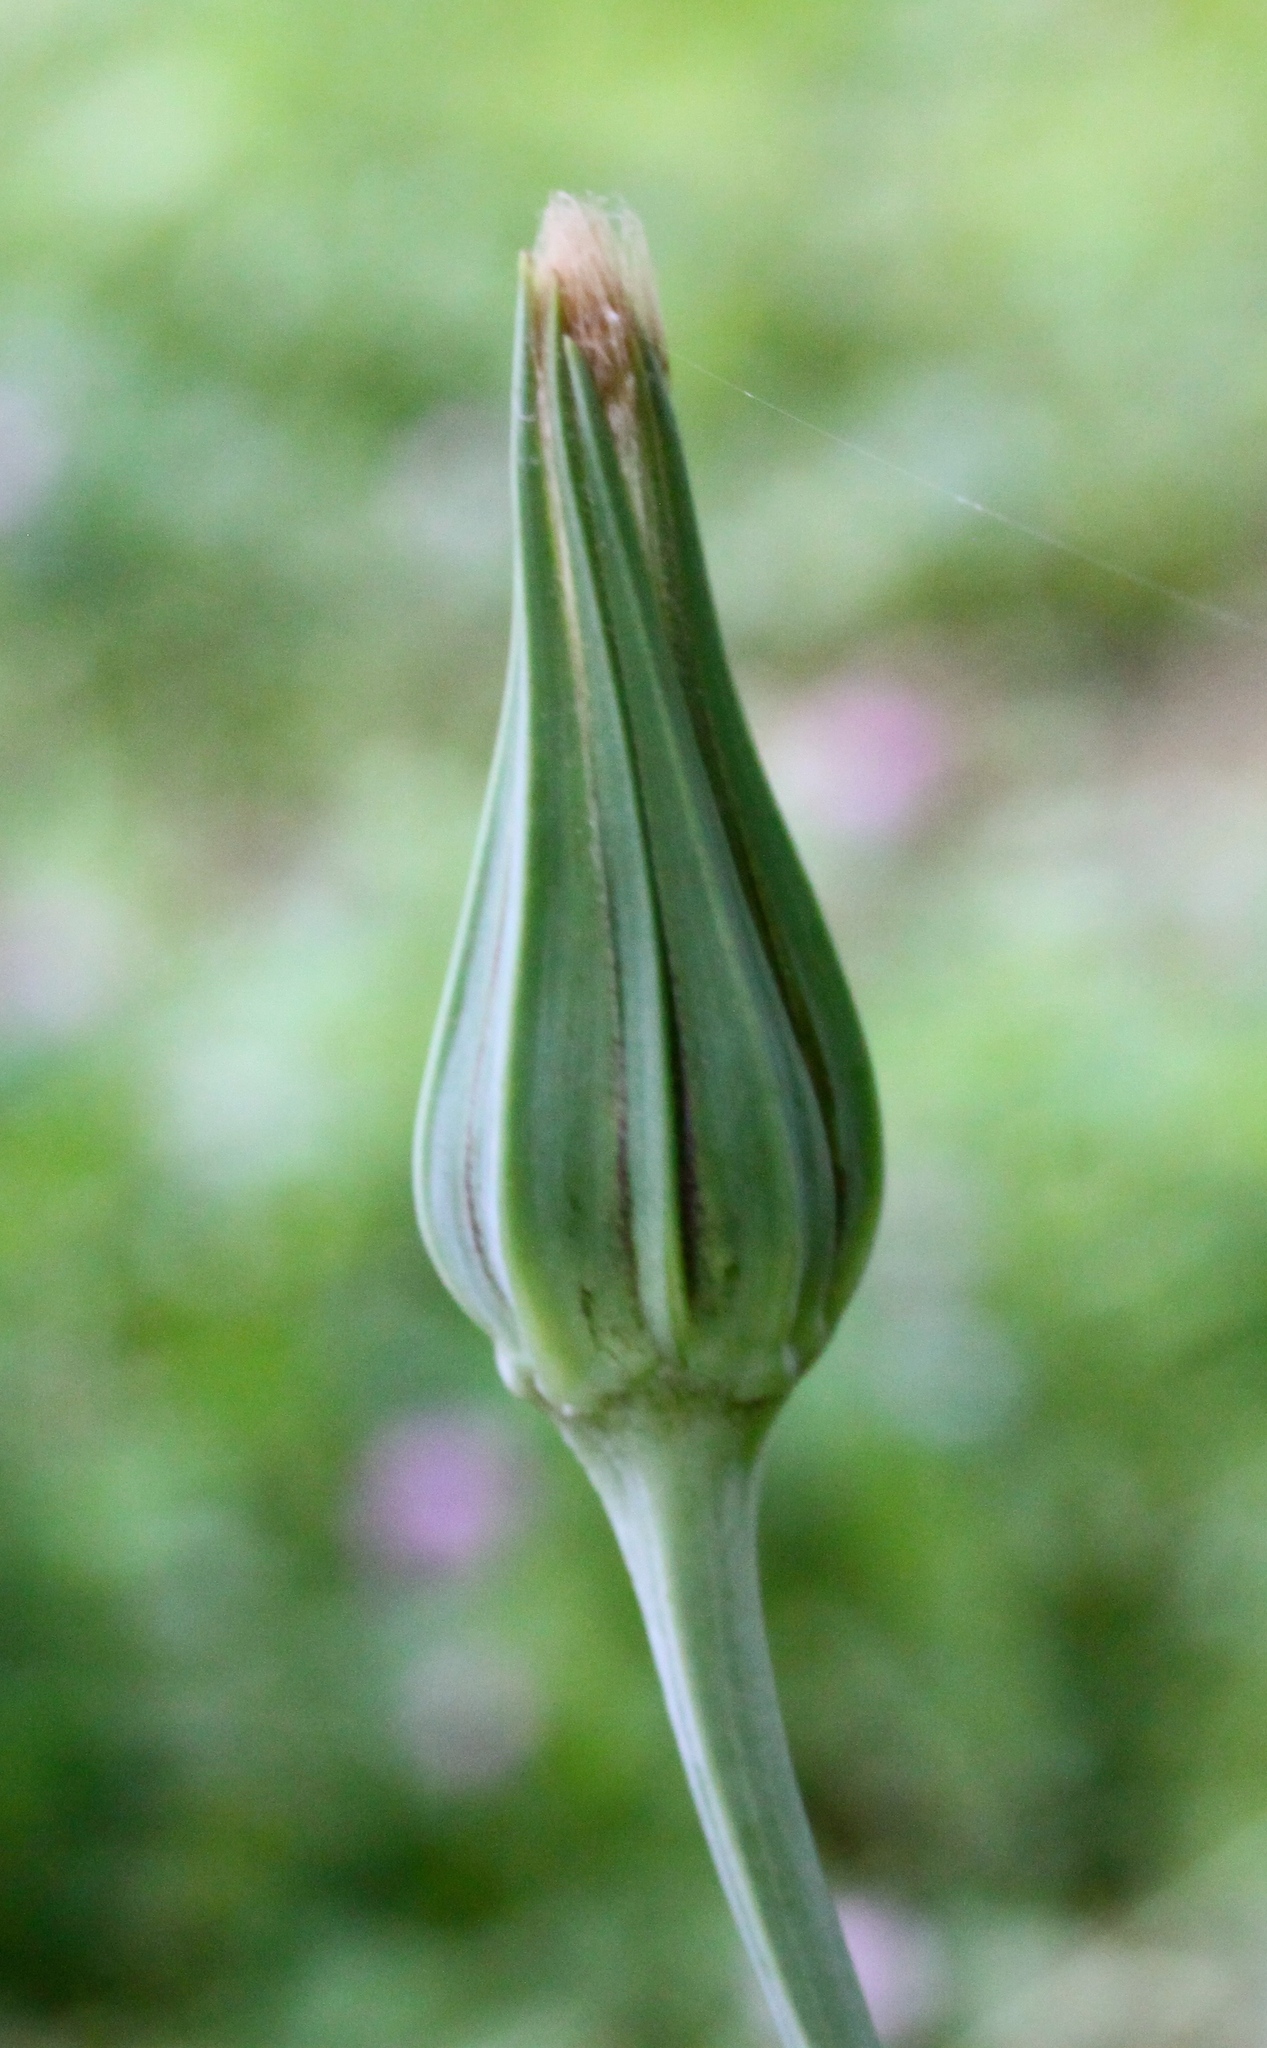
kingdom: Plantae
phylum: Tracheophyta
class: Magnoliopsida
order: Asterales
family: Asteraceae
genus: Tragopogon
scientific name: Tragopogon pratensis
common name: Goat's-beard
